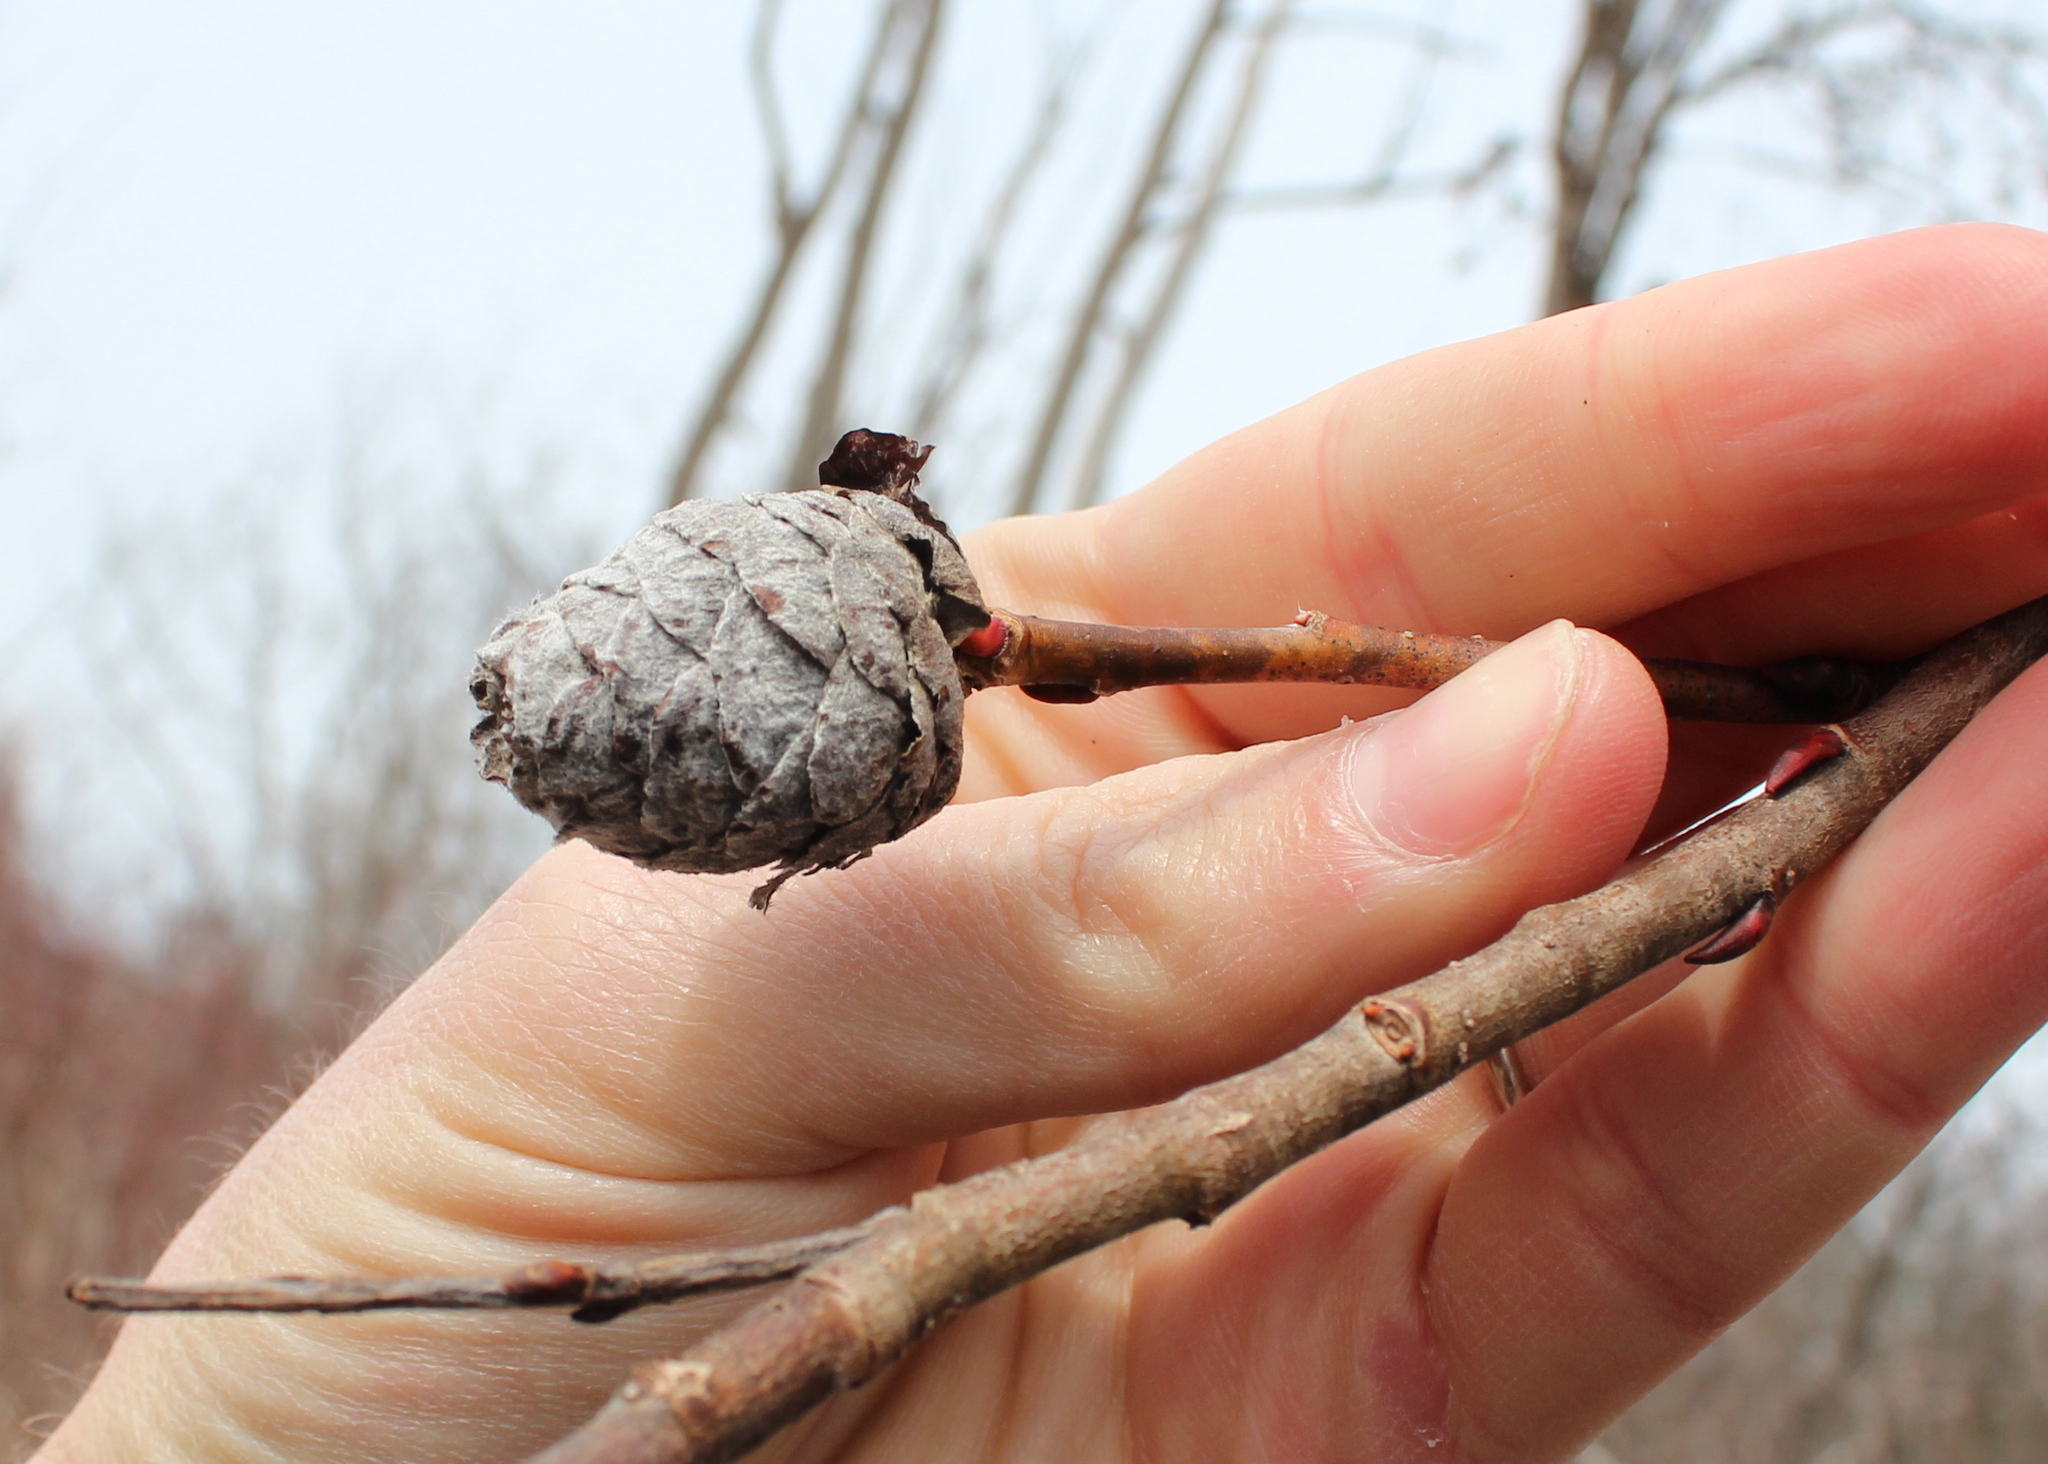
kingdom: Animalia
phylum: Arthropoda
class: Insecta
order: Diptera
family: Cecidomyiidae
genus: Rabdophaga
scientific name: Rabdophaga strobiloides
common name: Willow pinecone gall midge
